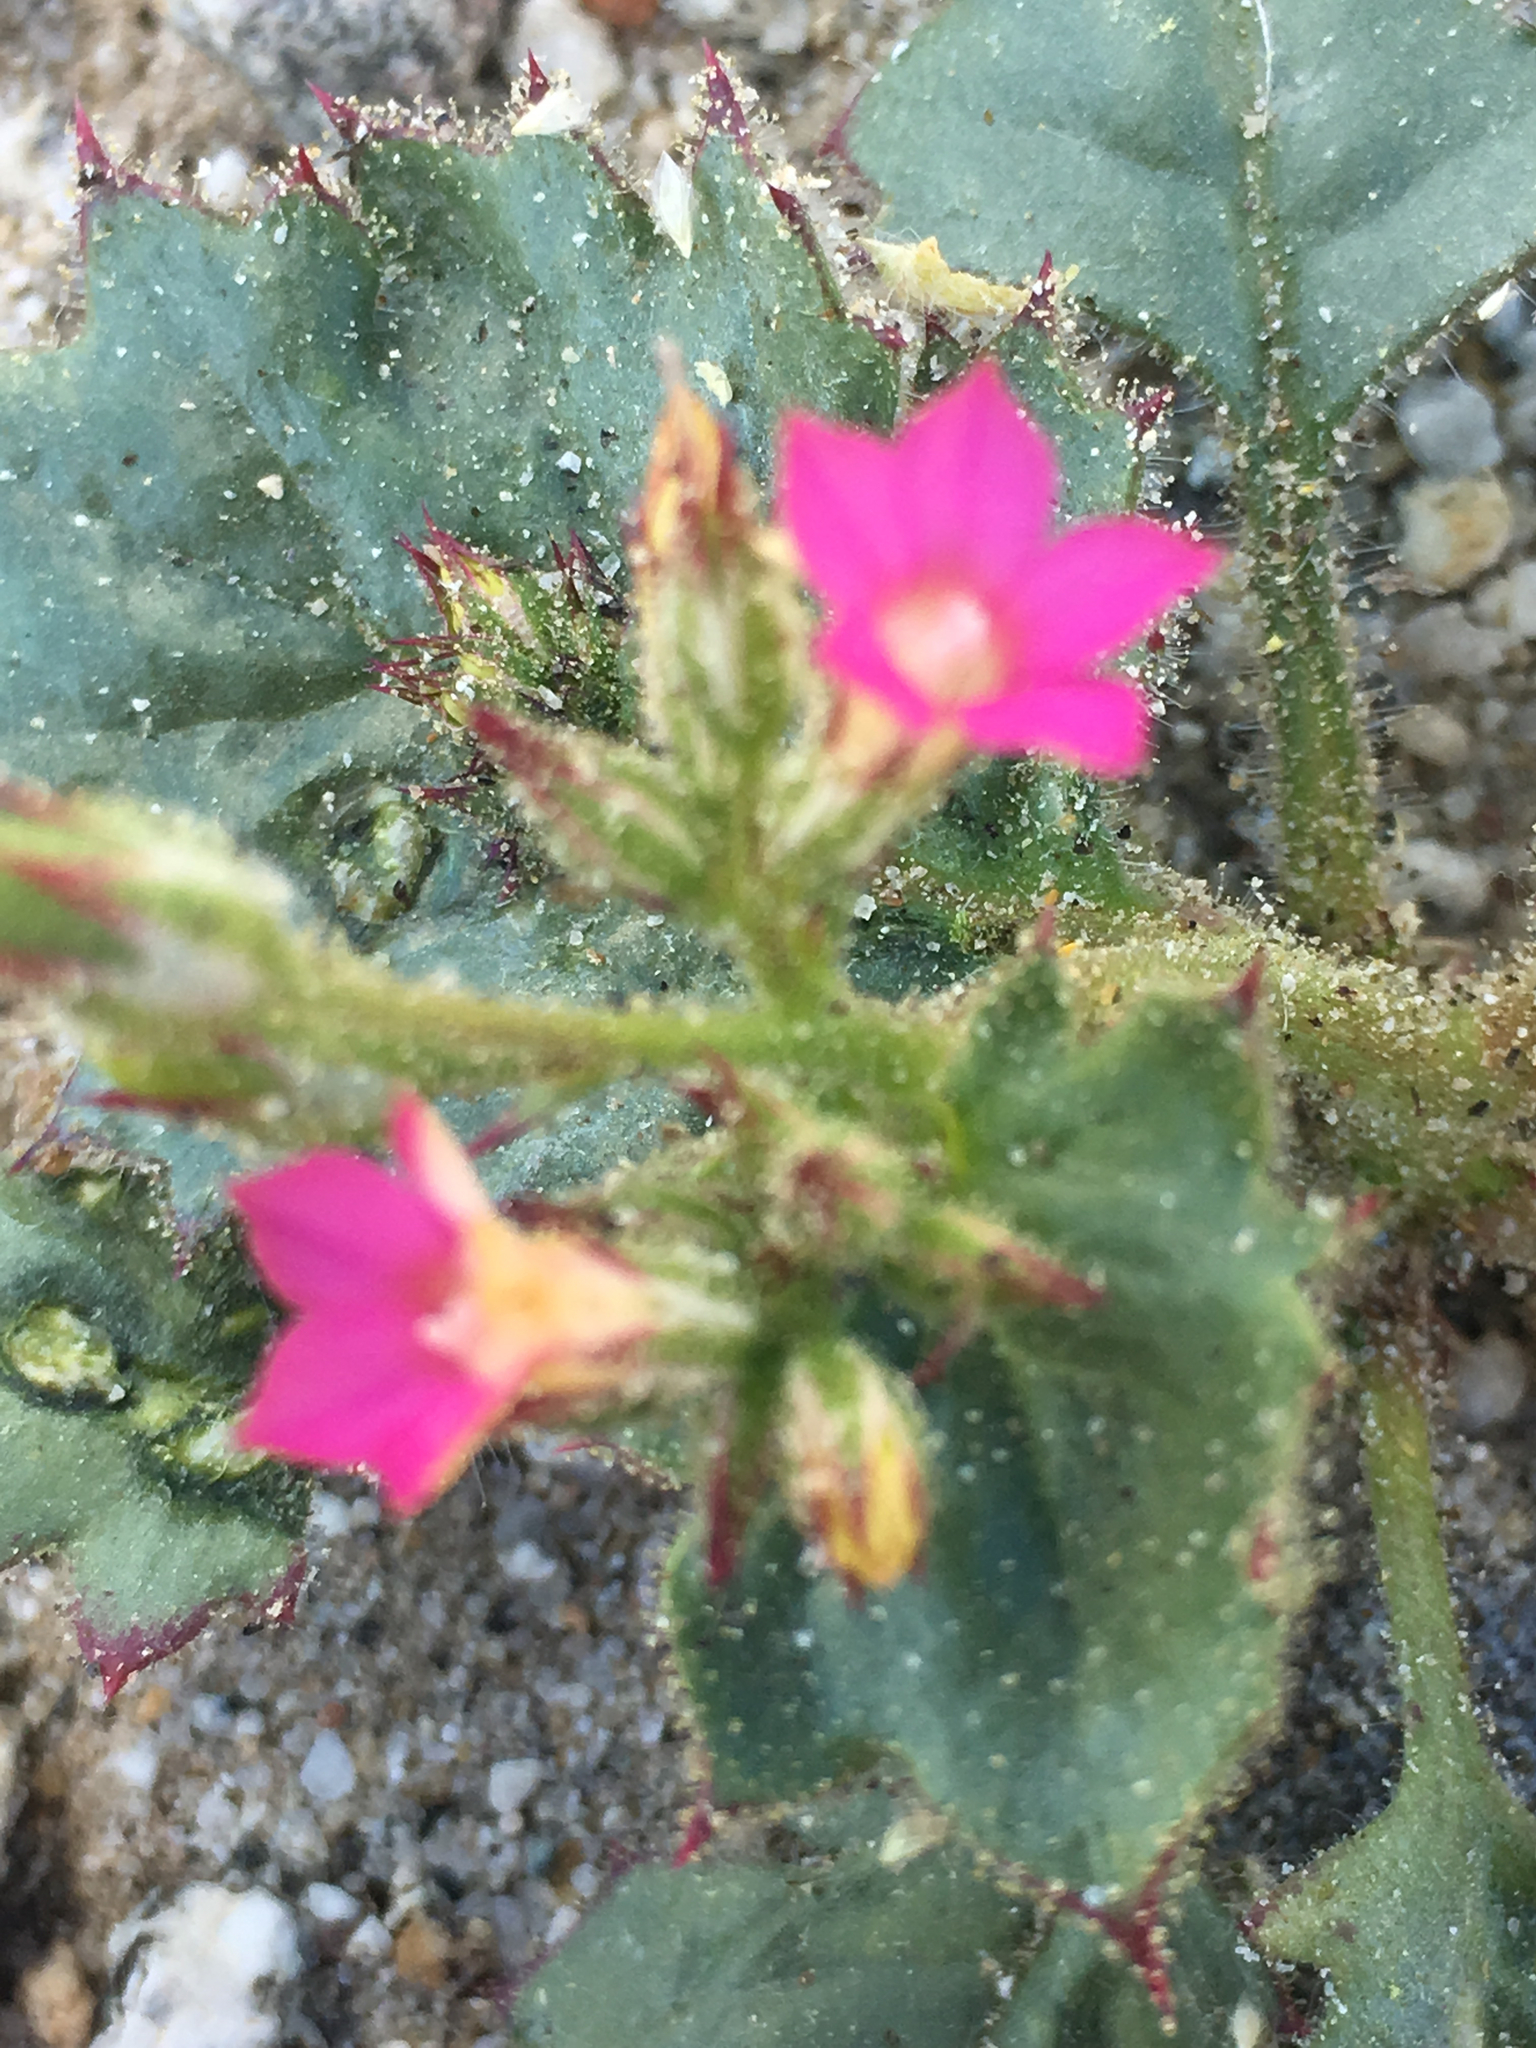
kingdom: Plantae
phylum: Tracheophyta
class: Magnoliopsida
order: Ericales
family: Polemoniaceae
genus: Aliciella
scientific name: Aliciella latifolia
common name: Broad-leaf gilia
